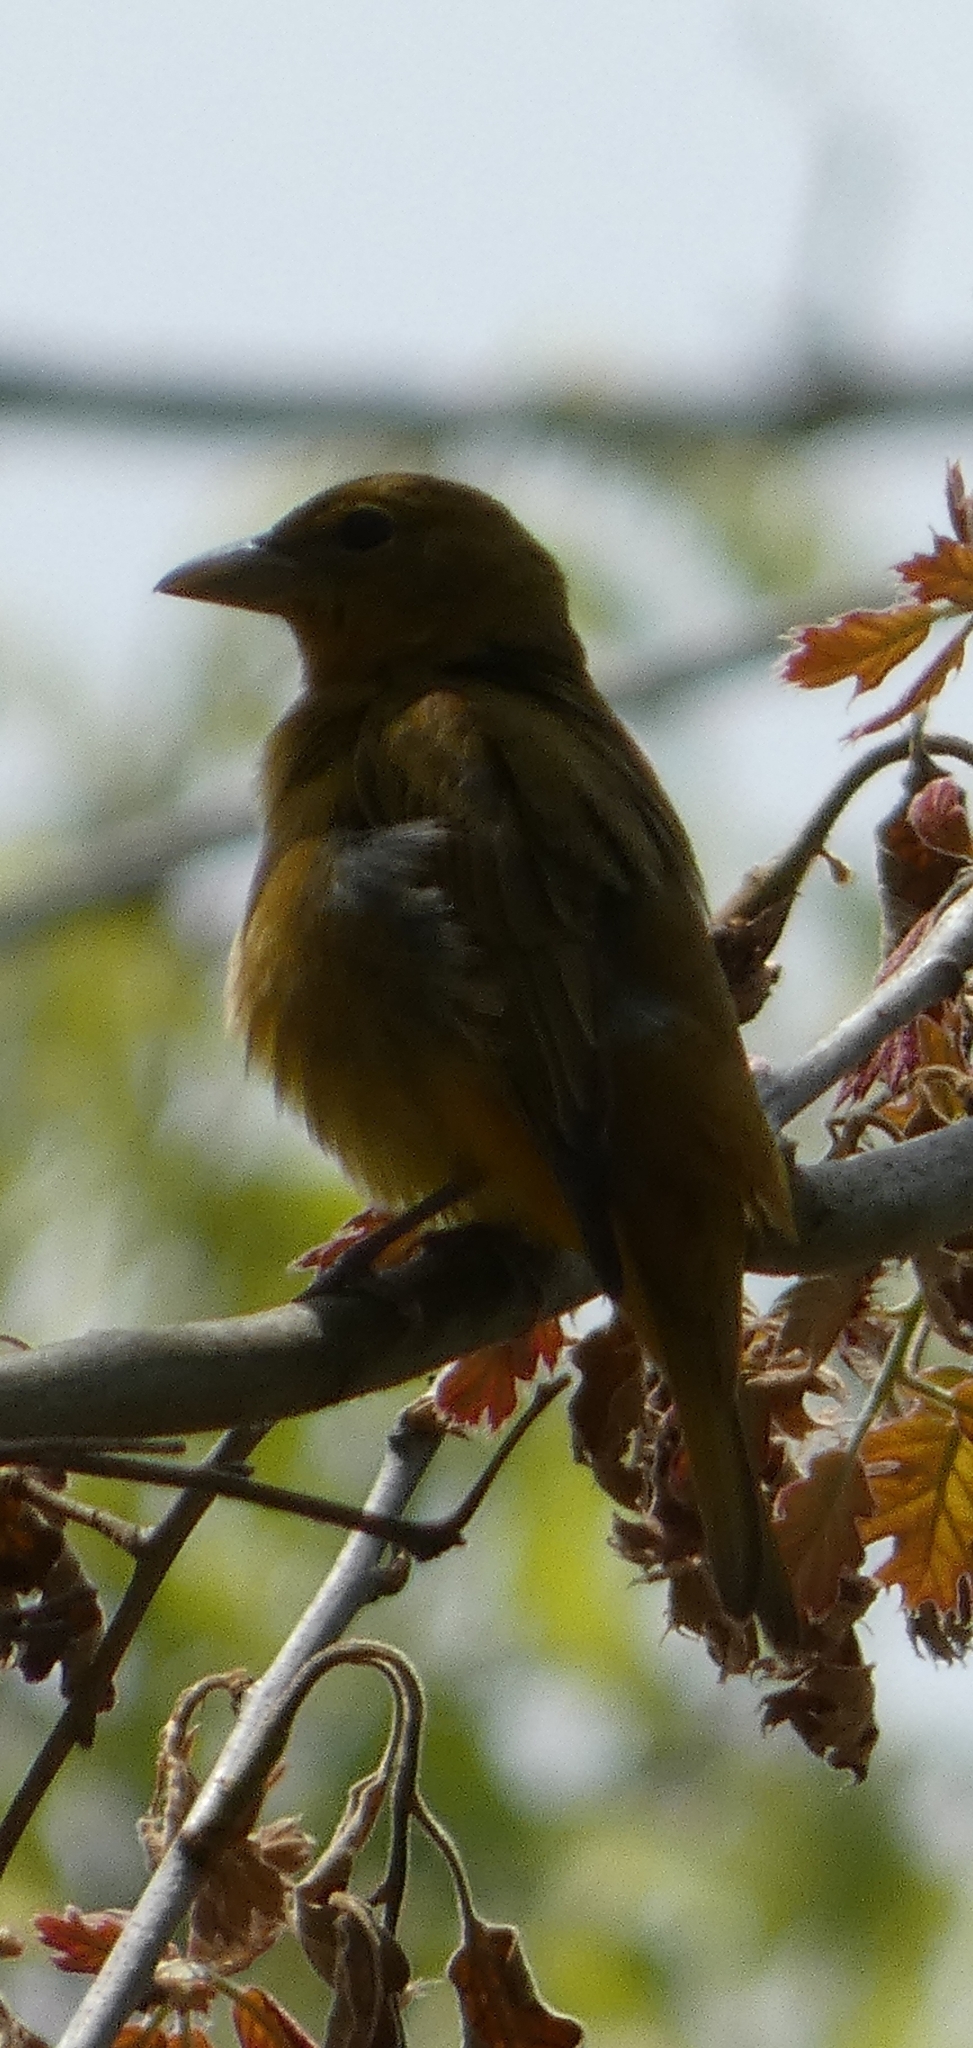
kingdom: Animalia
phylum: Chordata
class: Aves
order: Passeriformes
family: Cardinalidae
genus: Piranga
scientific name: Piranga rubra
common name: Summer tanager
